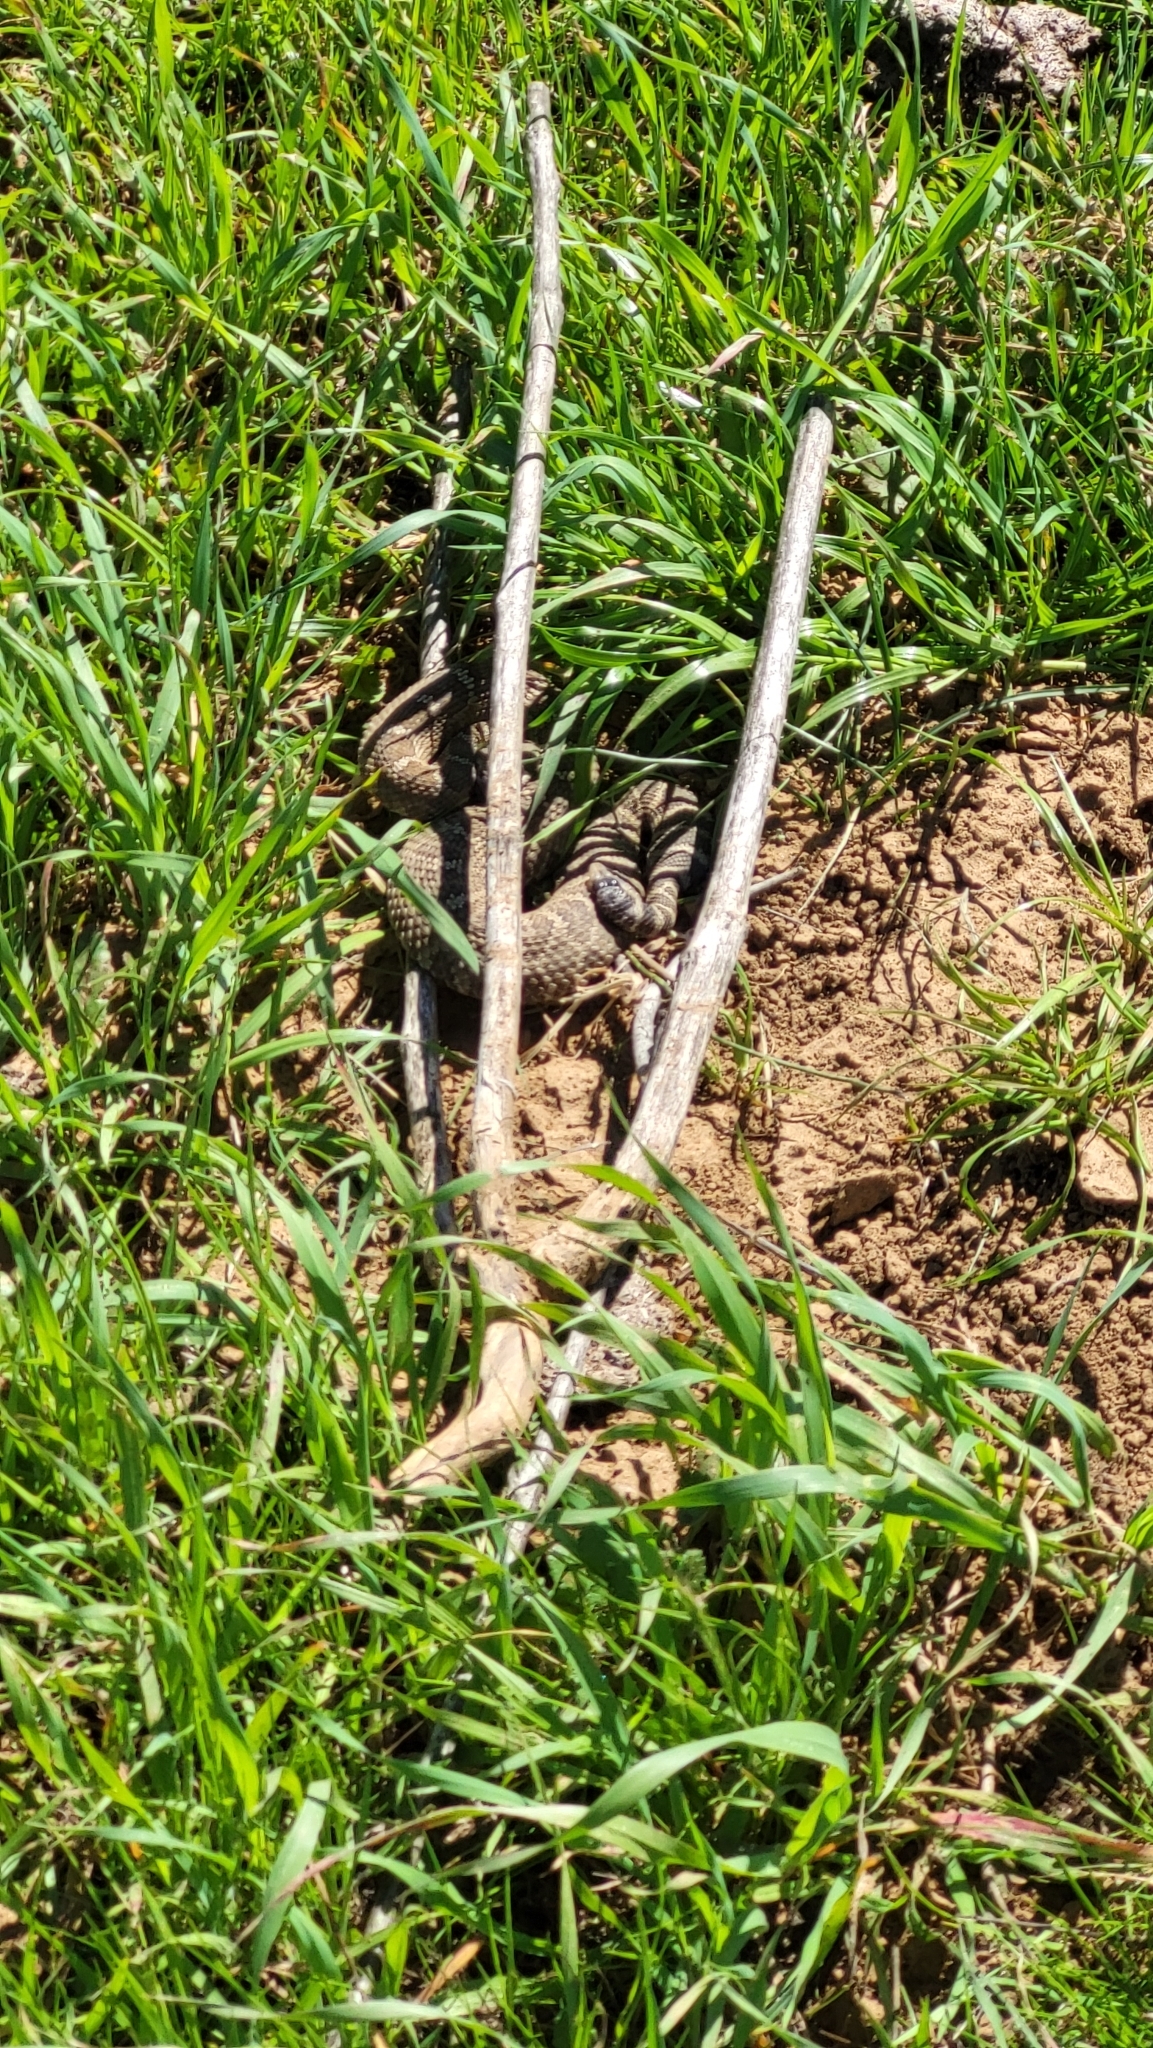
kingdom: Animalia
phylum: Chordata
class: Squamata
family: Viperidae
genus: Crotalus
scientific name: Crotalus oreganus
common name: Abyssus
